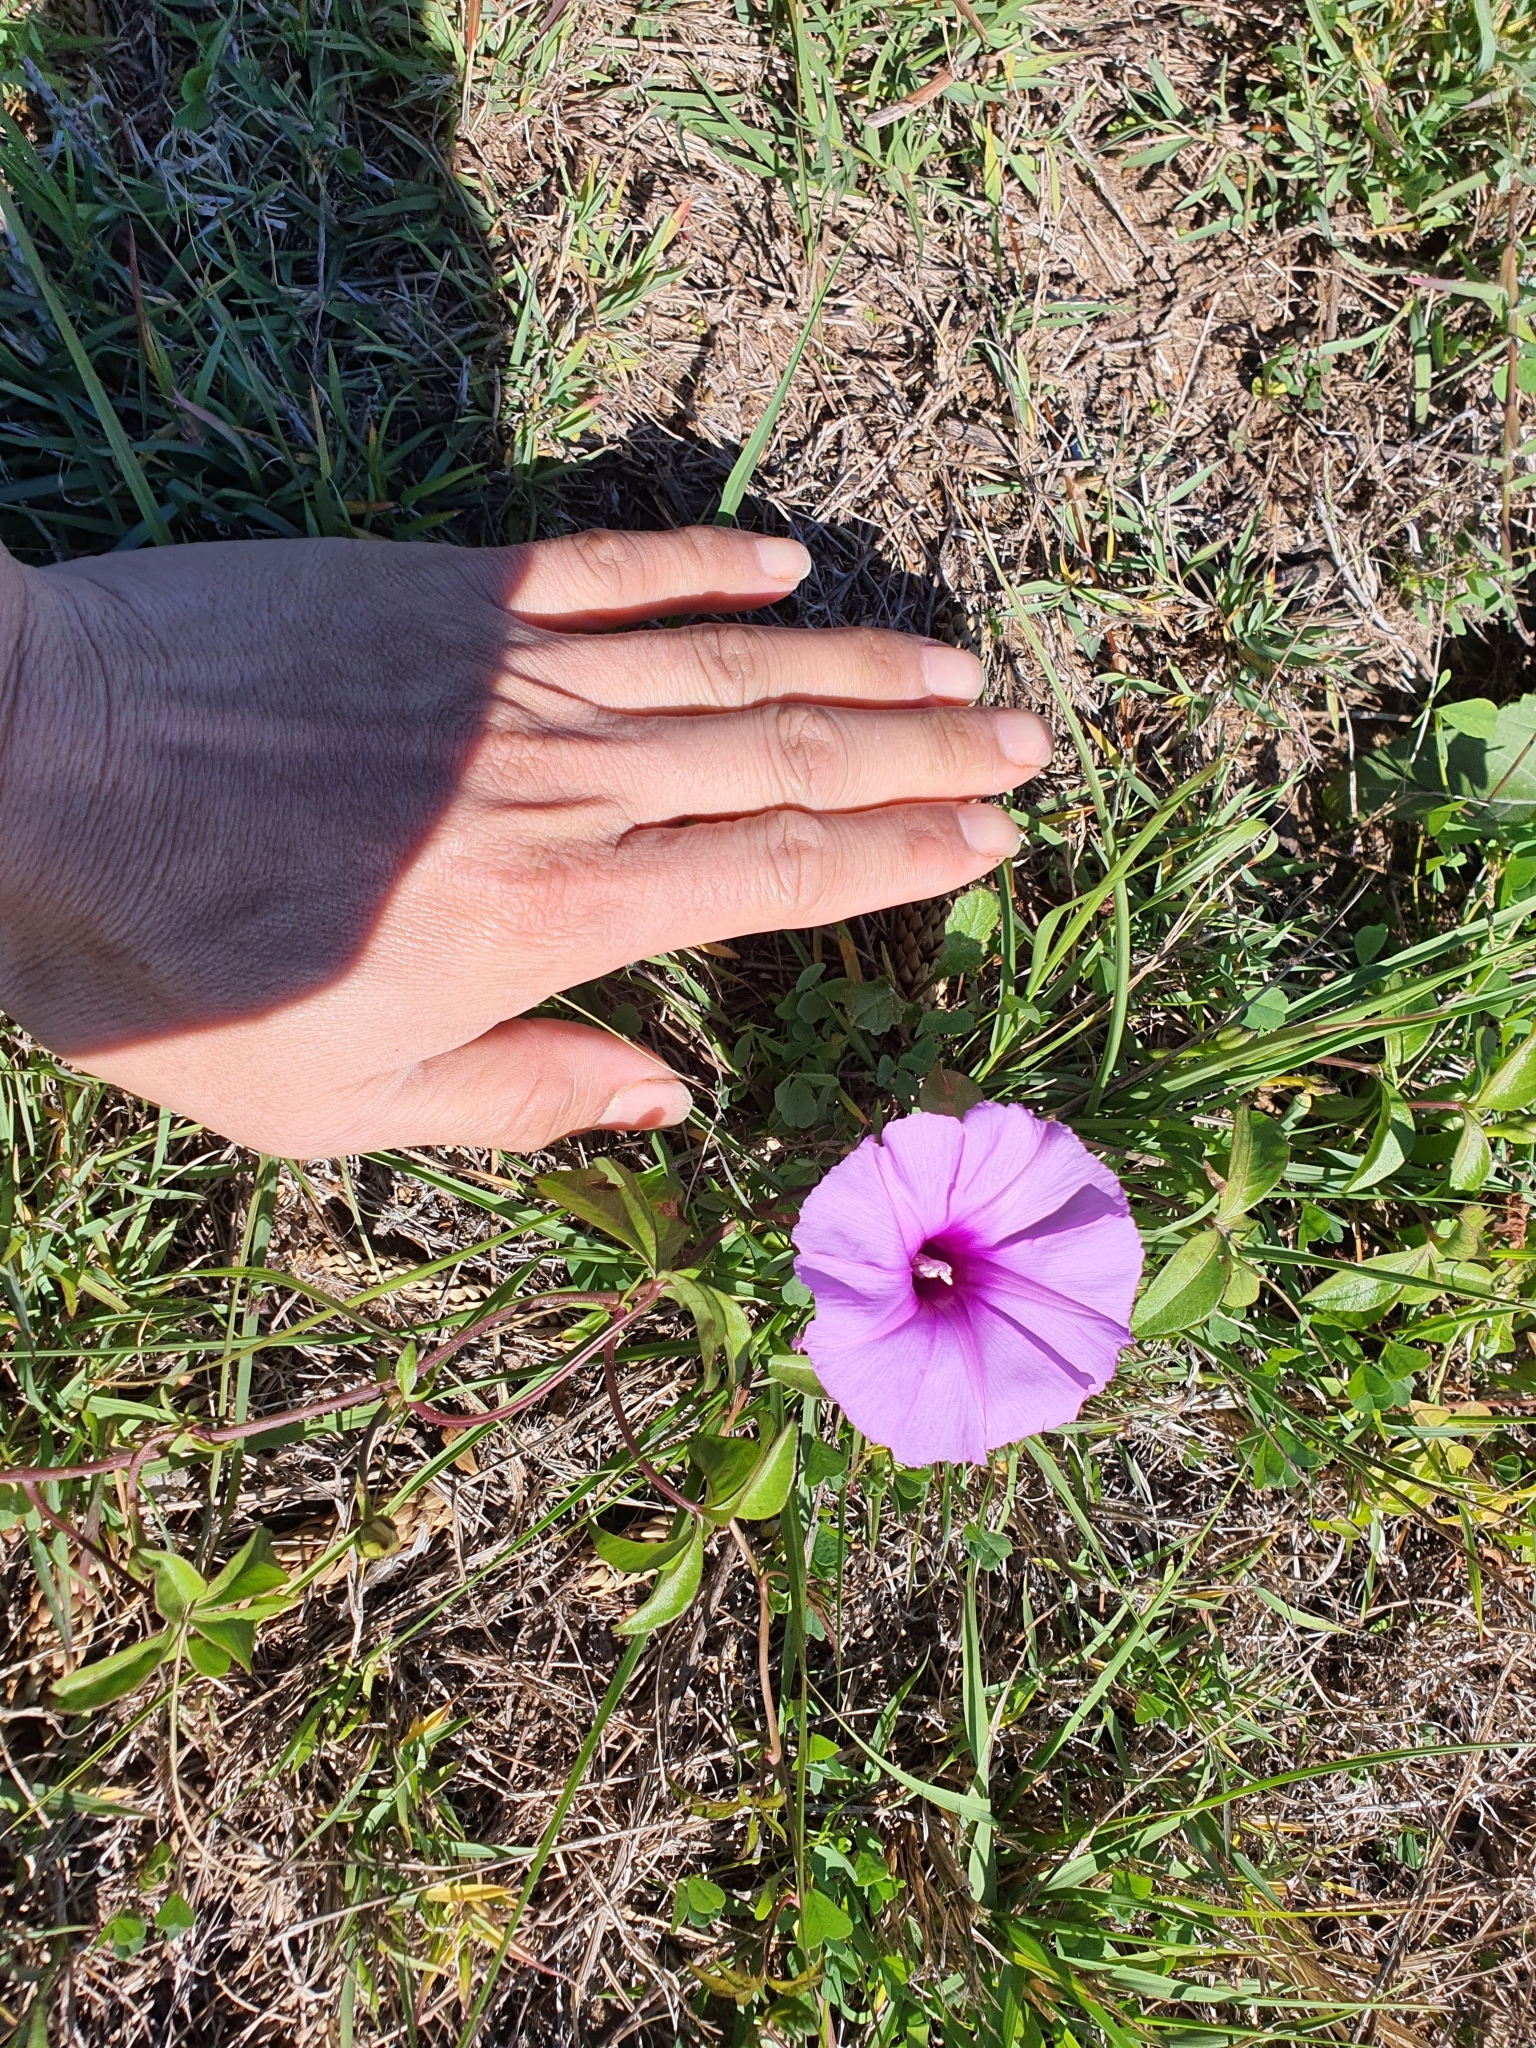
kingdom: Plantae
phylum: Tracheophyta
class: Magnoliopsida
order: Solanales
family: Convolvulaceae
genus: Ipomoea
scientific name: Ipomoea cairica
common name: Mile a minute vine
